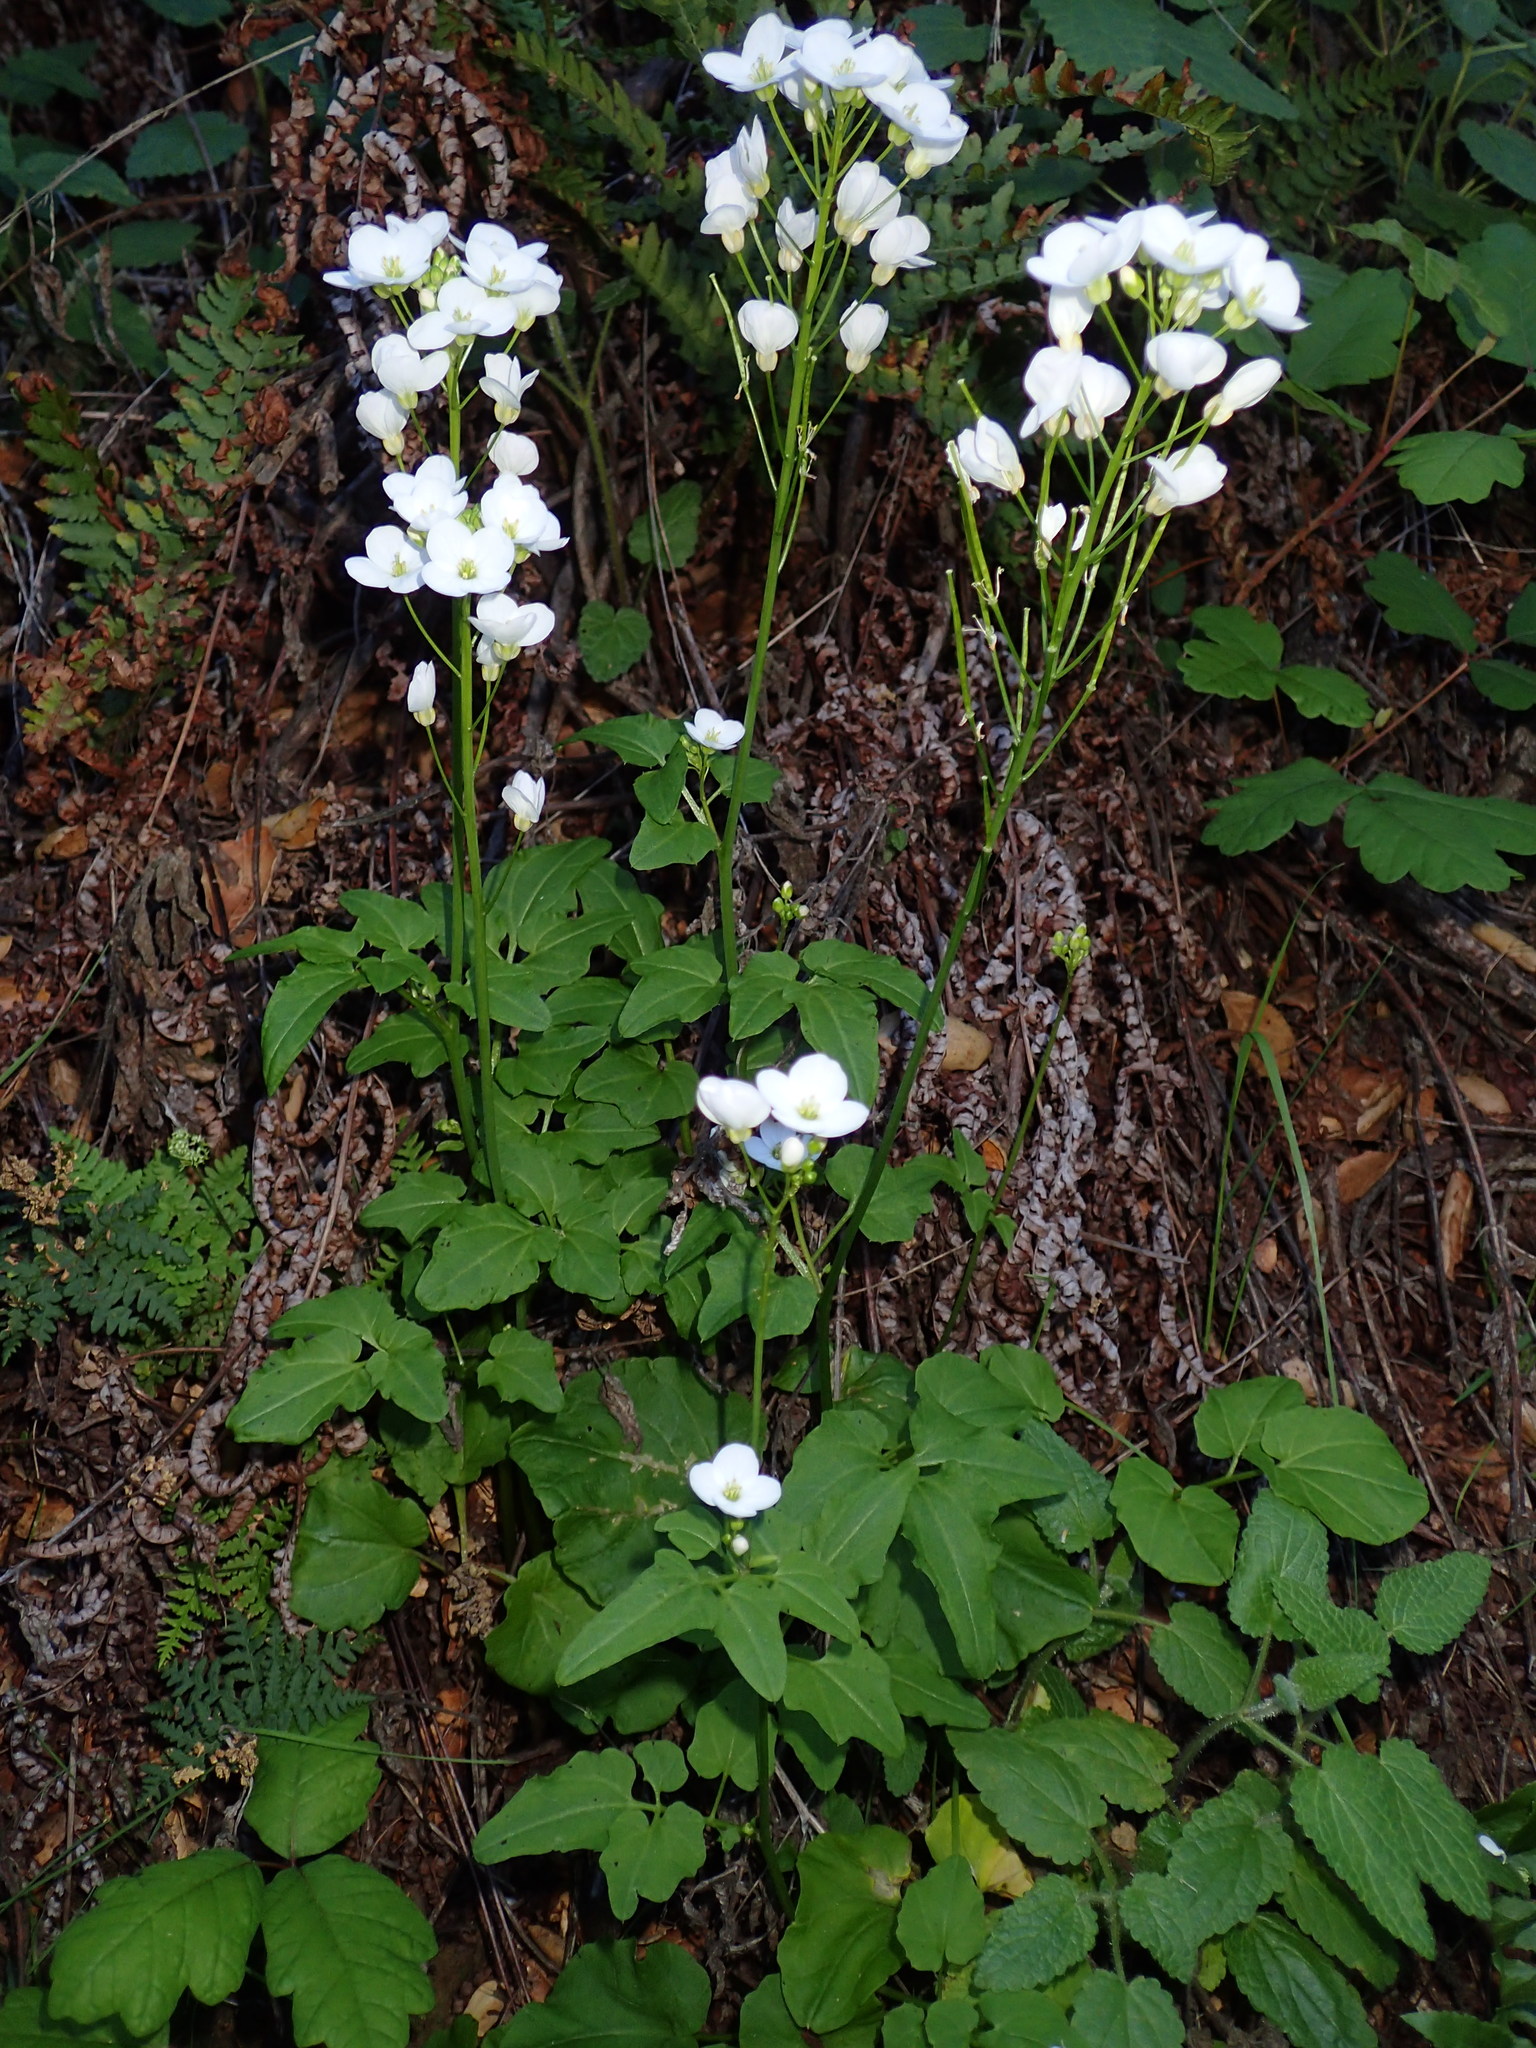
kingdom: Plantae
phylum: Tracheophyta
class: Magnoliopsida
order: Brassicales
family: Brassicaceae
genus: Cardamine
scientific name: Cardamine californica
